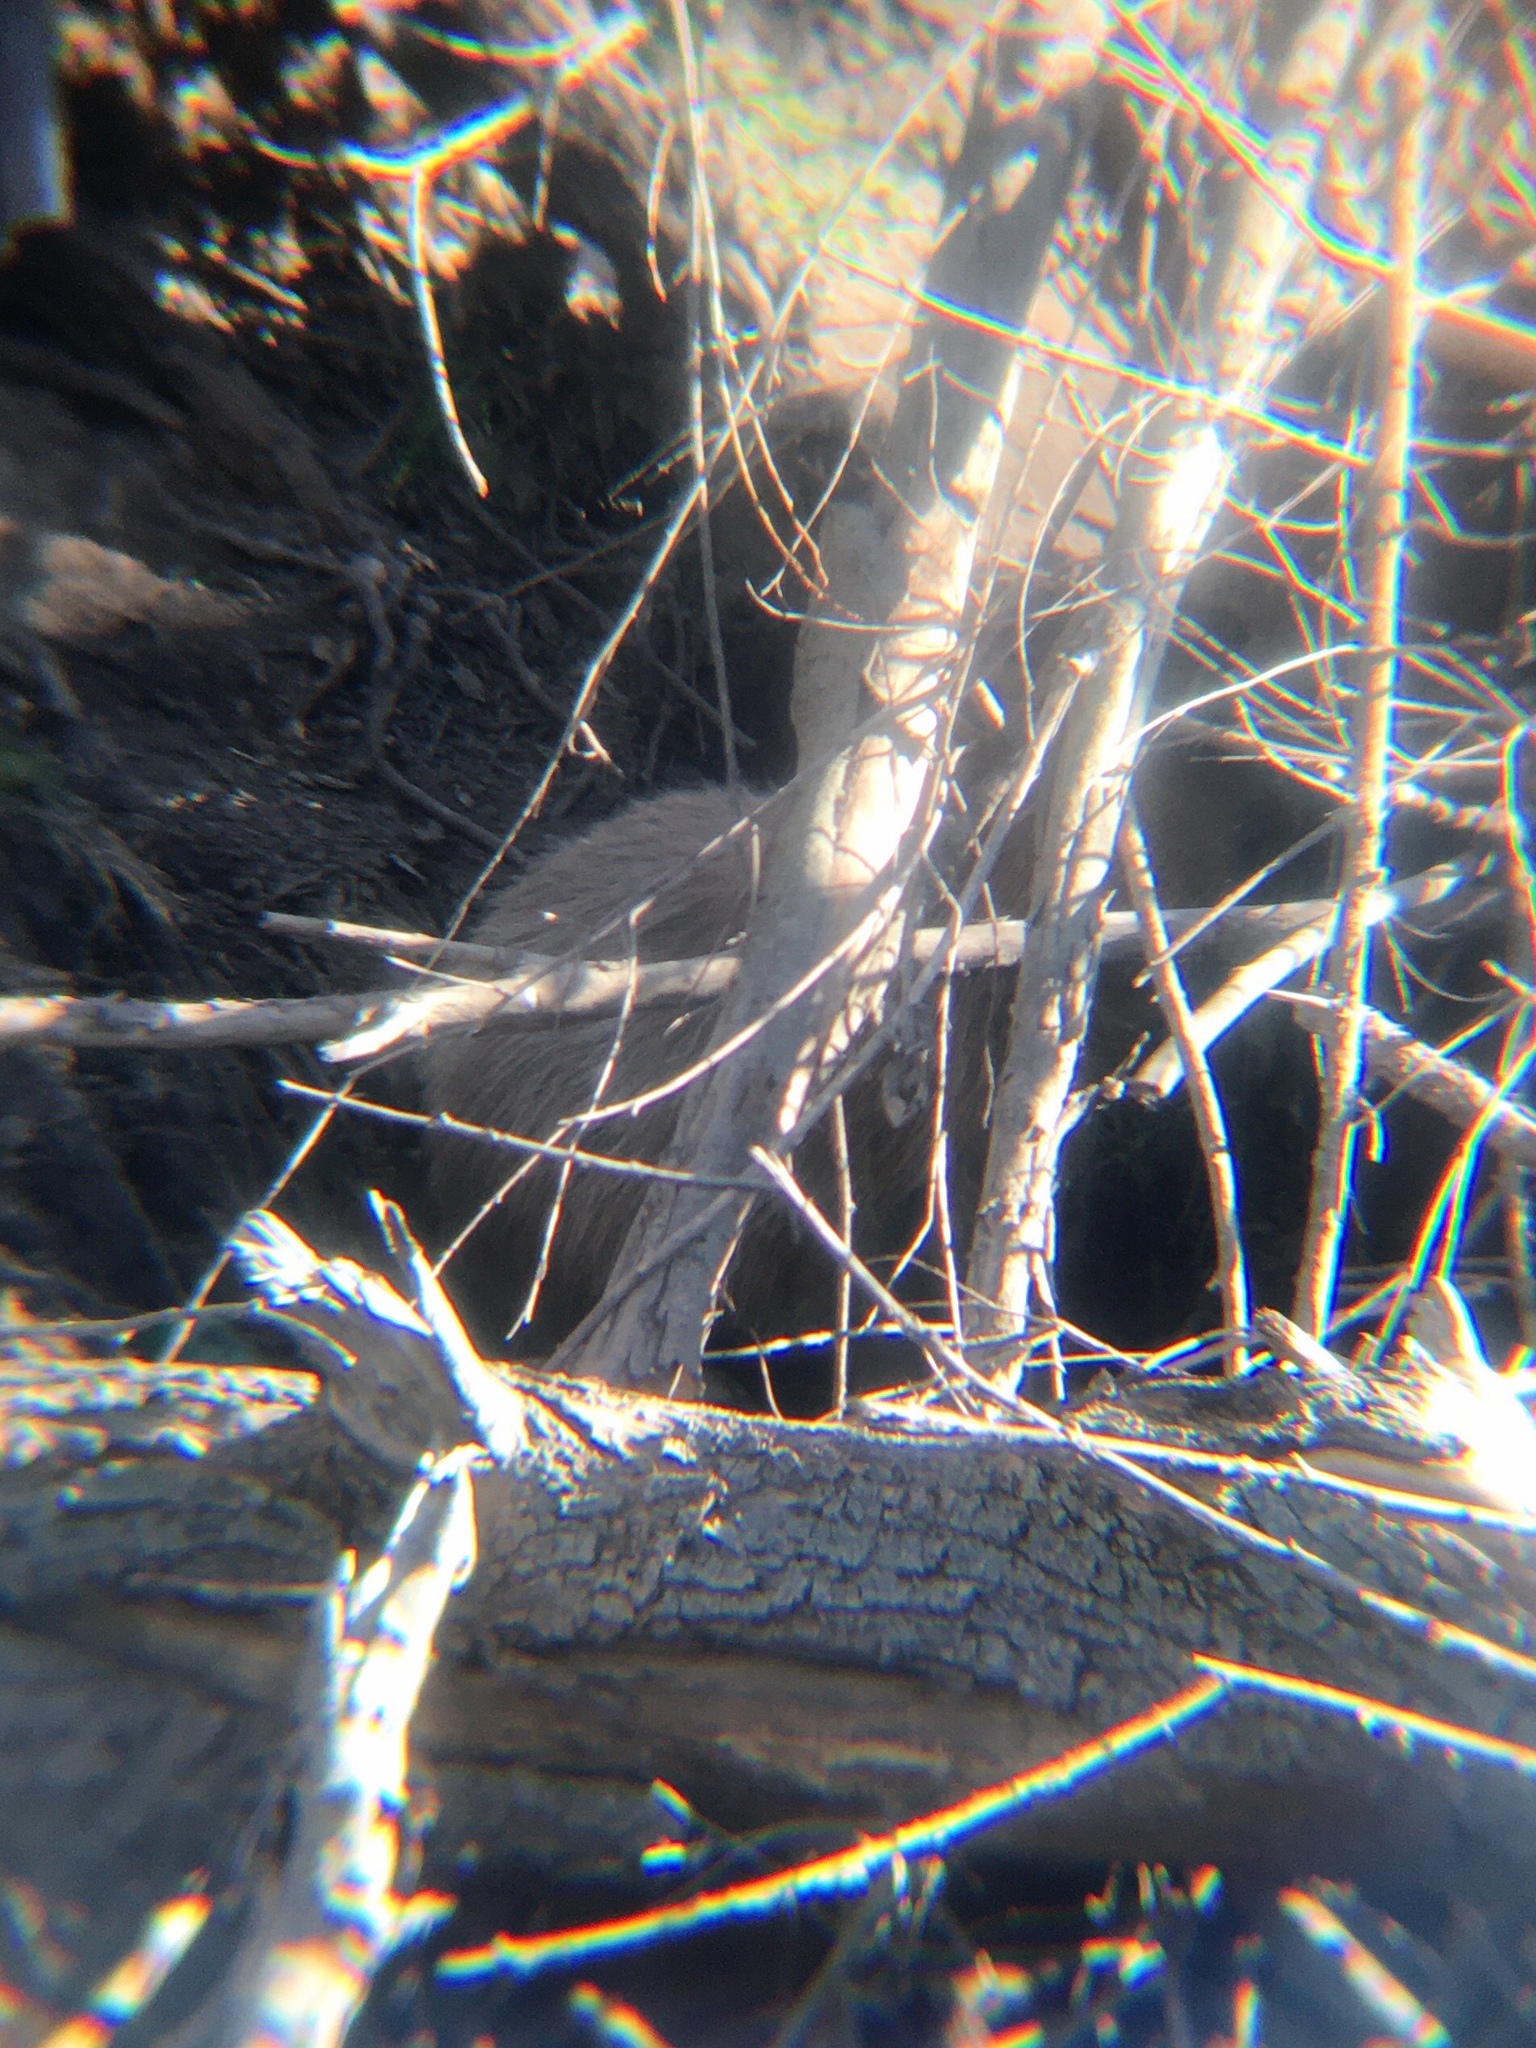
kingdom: Animalia
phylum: Chordata
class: Mammalia
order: Rodentia
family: Caviidae
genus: Hydrochoerus
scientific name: Hydrochoerus hydrochaeris
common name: Capybara
